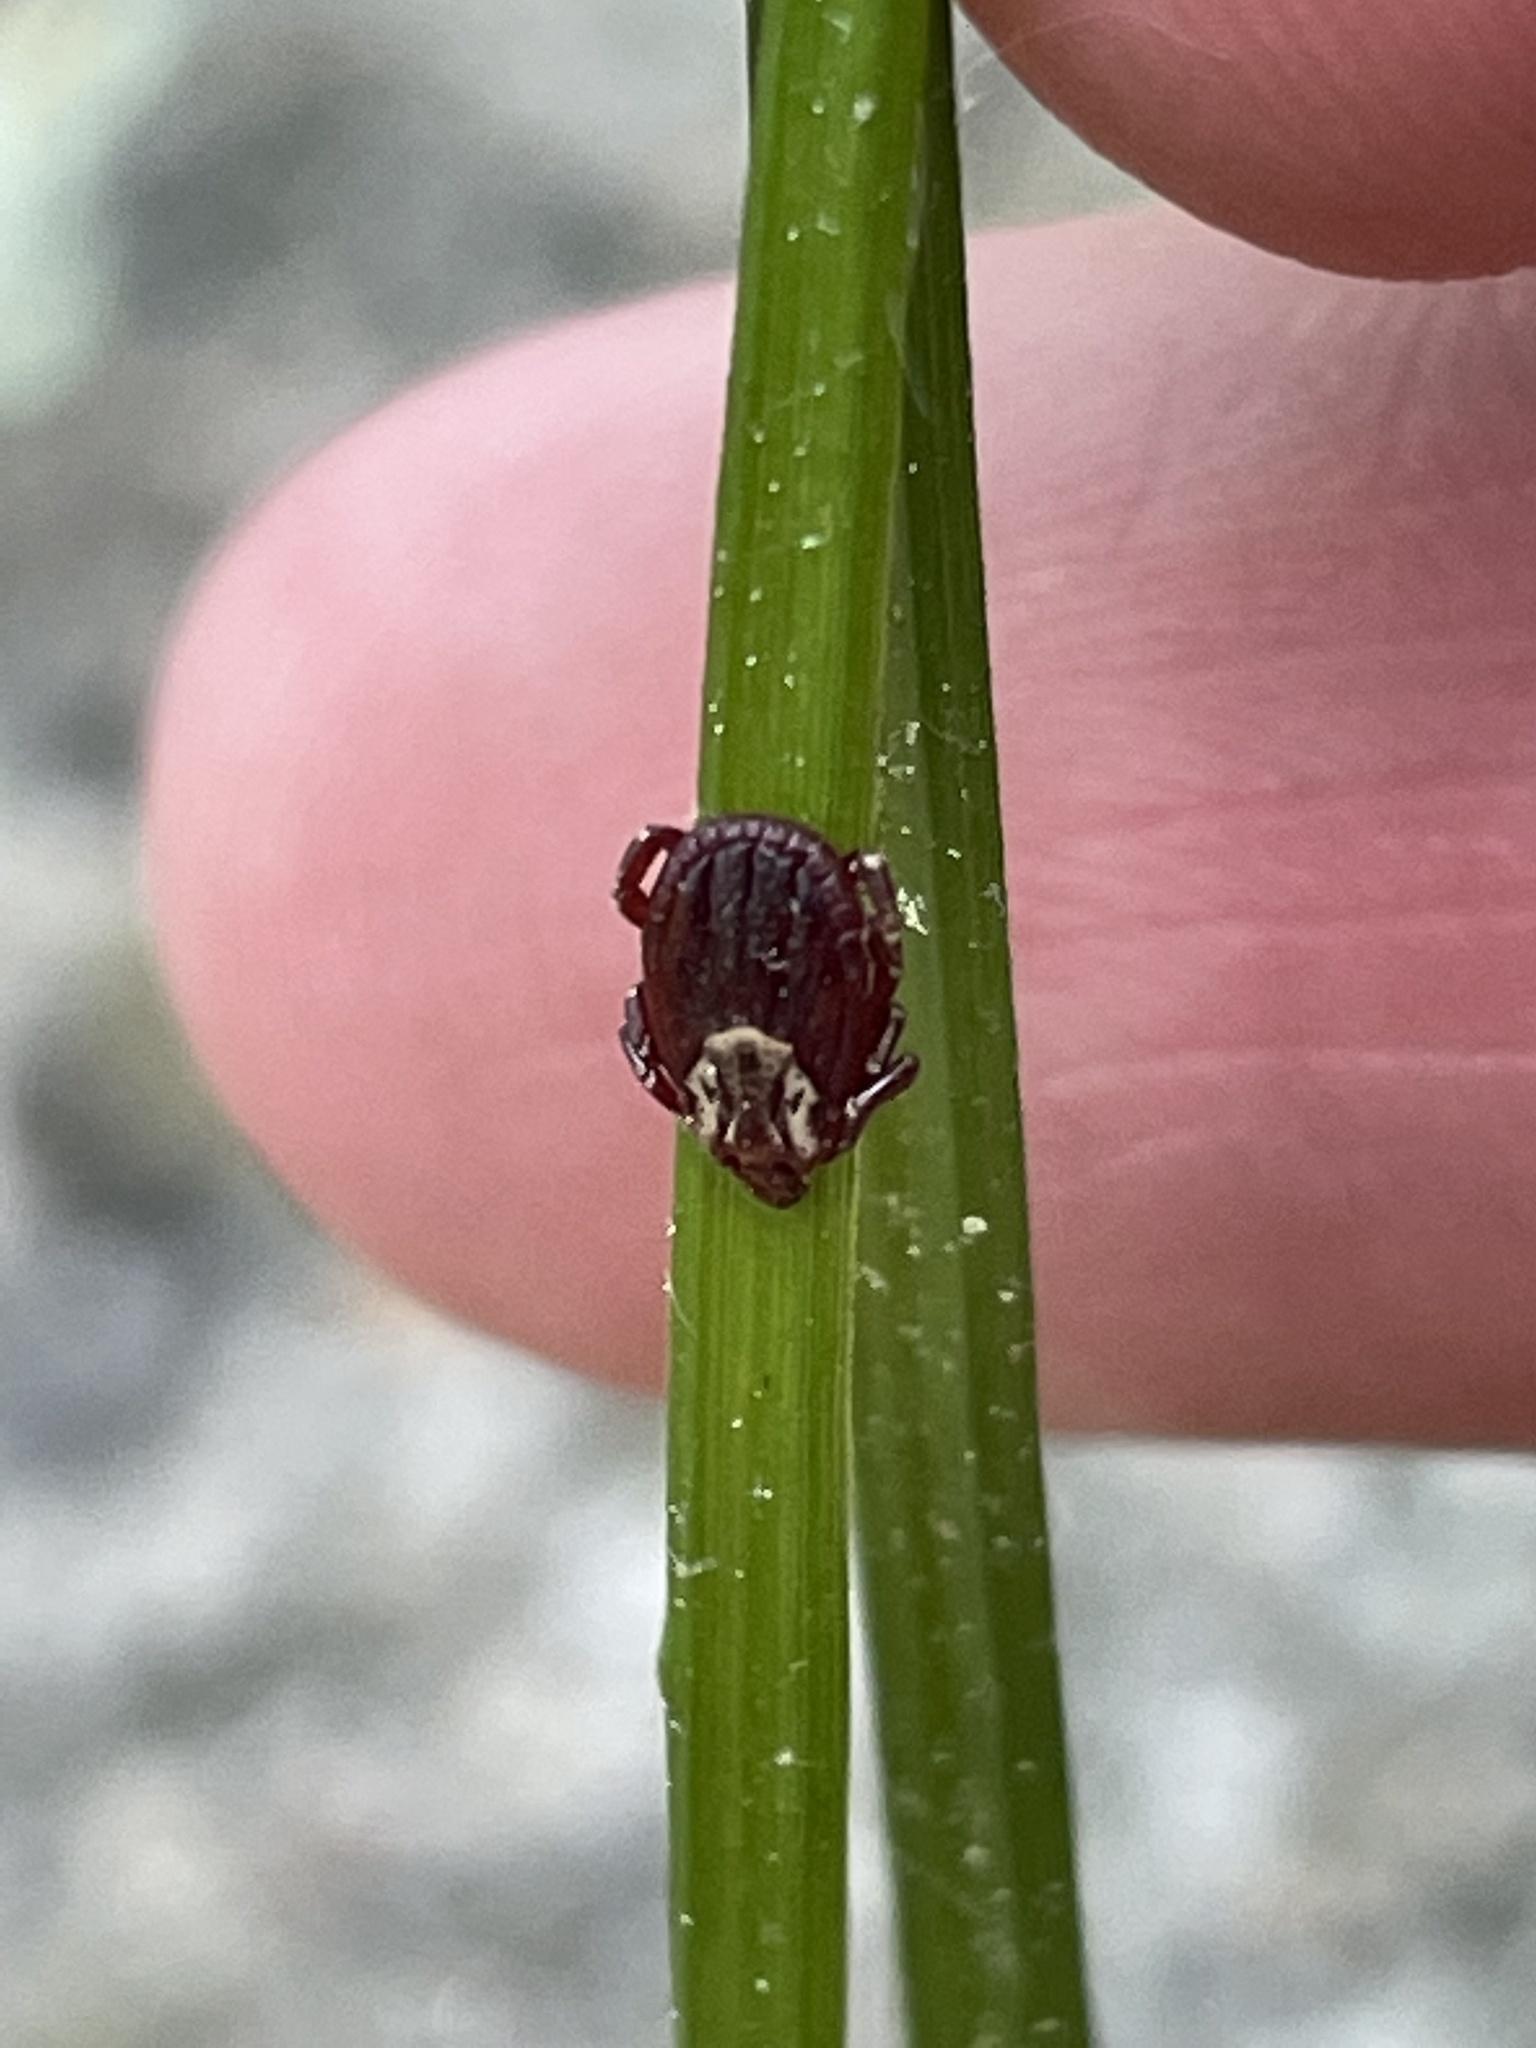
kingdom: Animalia
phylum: Arthropoda
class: Arachnida
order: Ixodida
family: Ixodidae
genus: Dermacentor
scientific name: Dermacentor variabilis
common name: American dog tick
